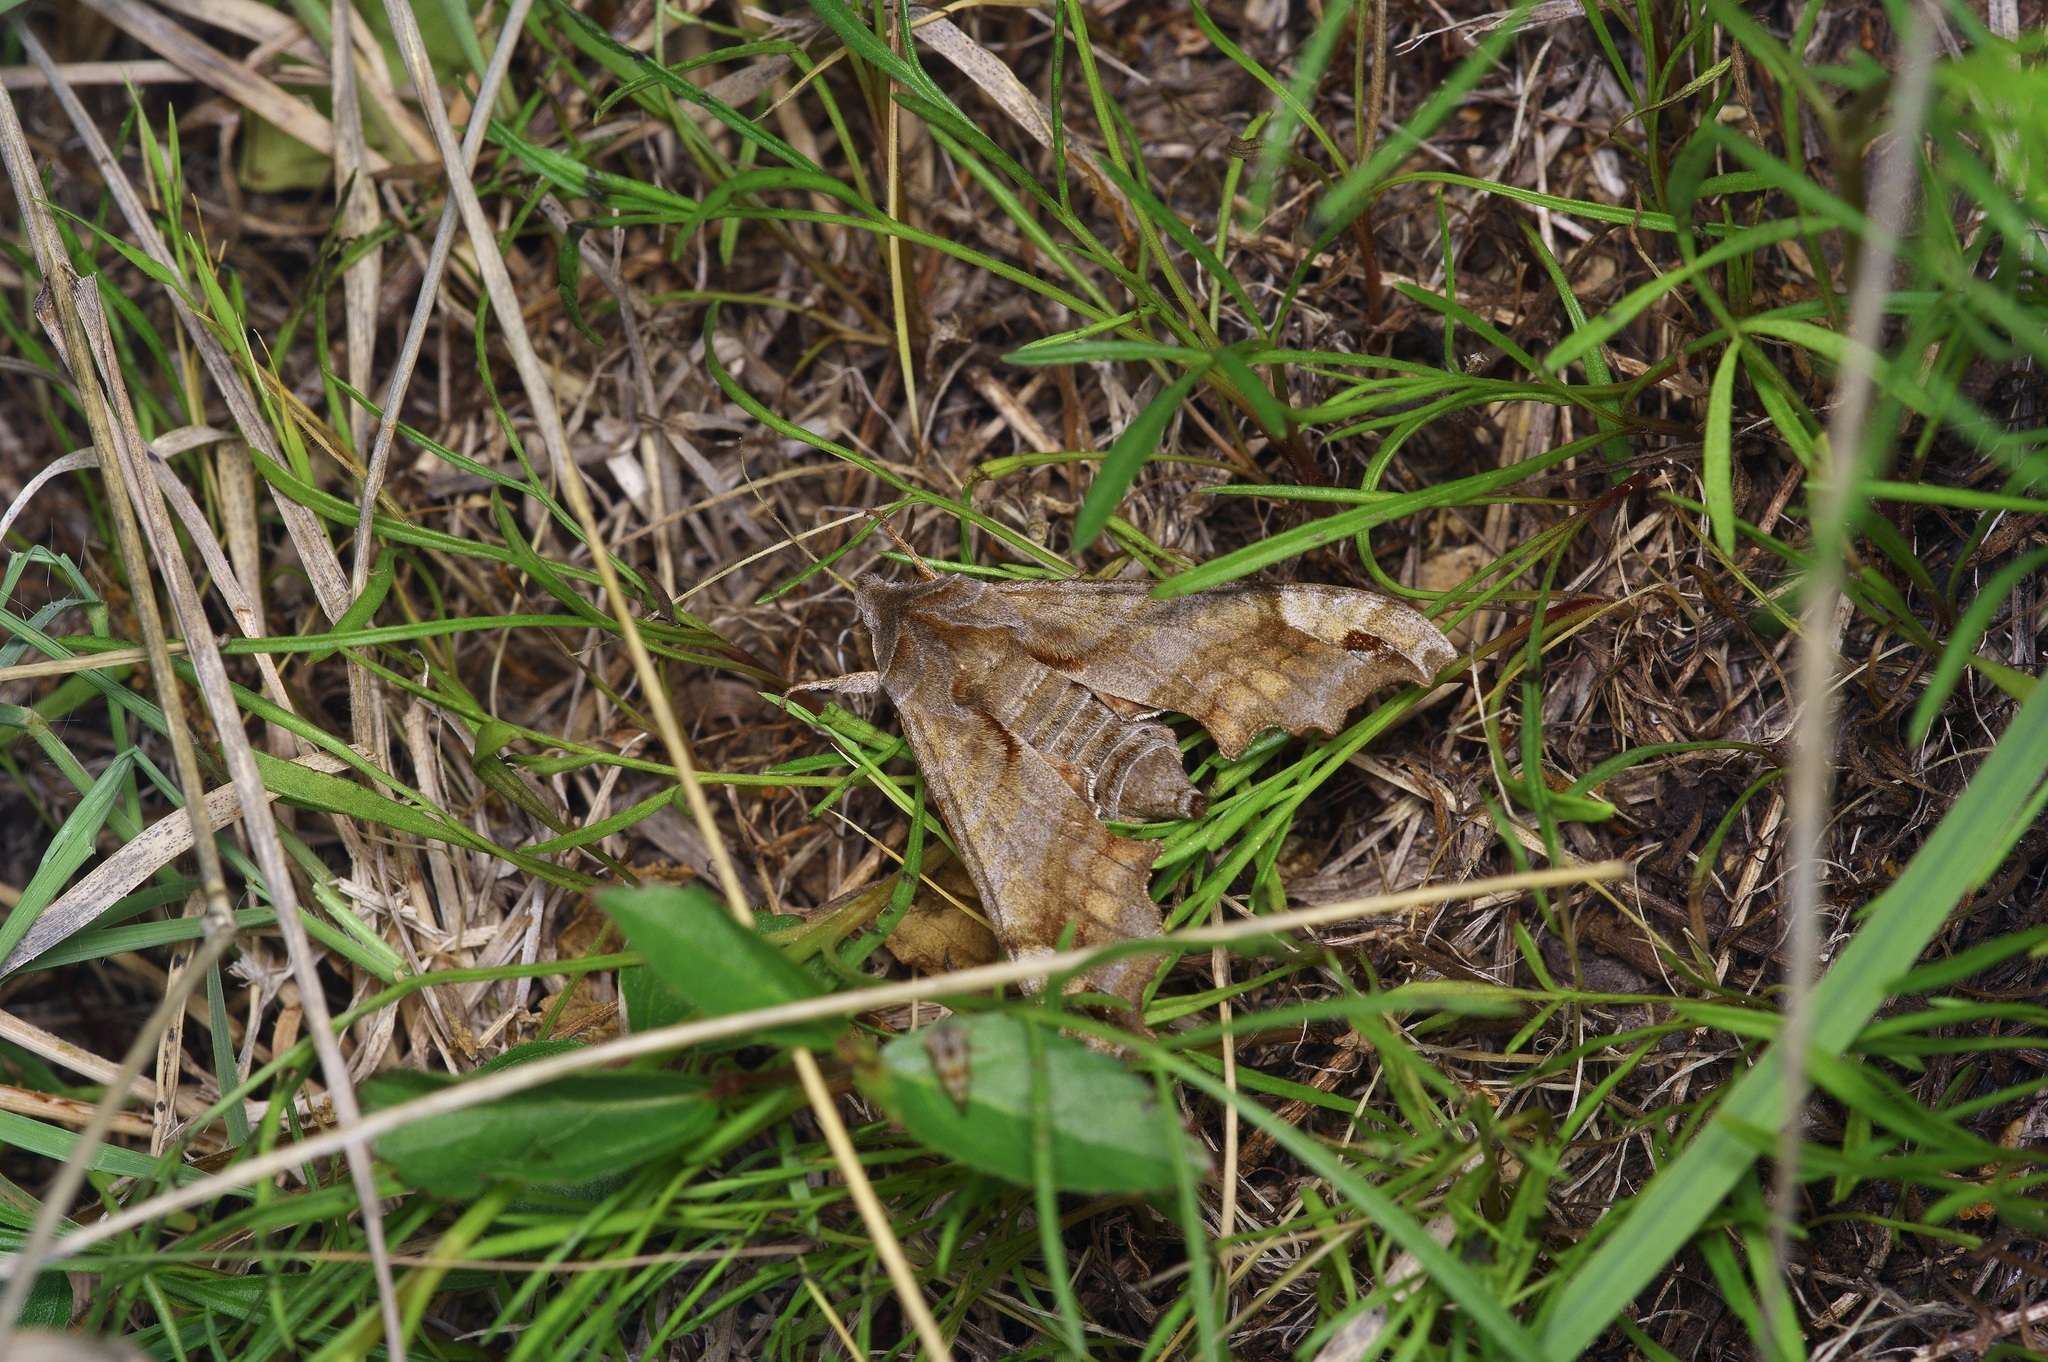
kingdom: Animalia
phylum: Arthropoda
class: Insecta
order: Lepidoptera
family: Sphingidae
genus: Deidamia
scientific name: Deidamia inscriptum
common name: Lettered sphinx
